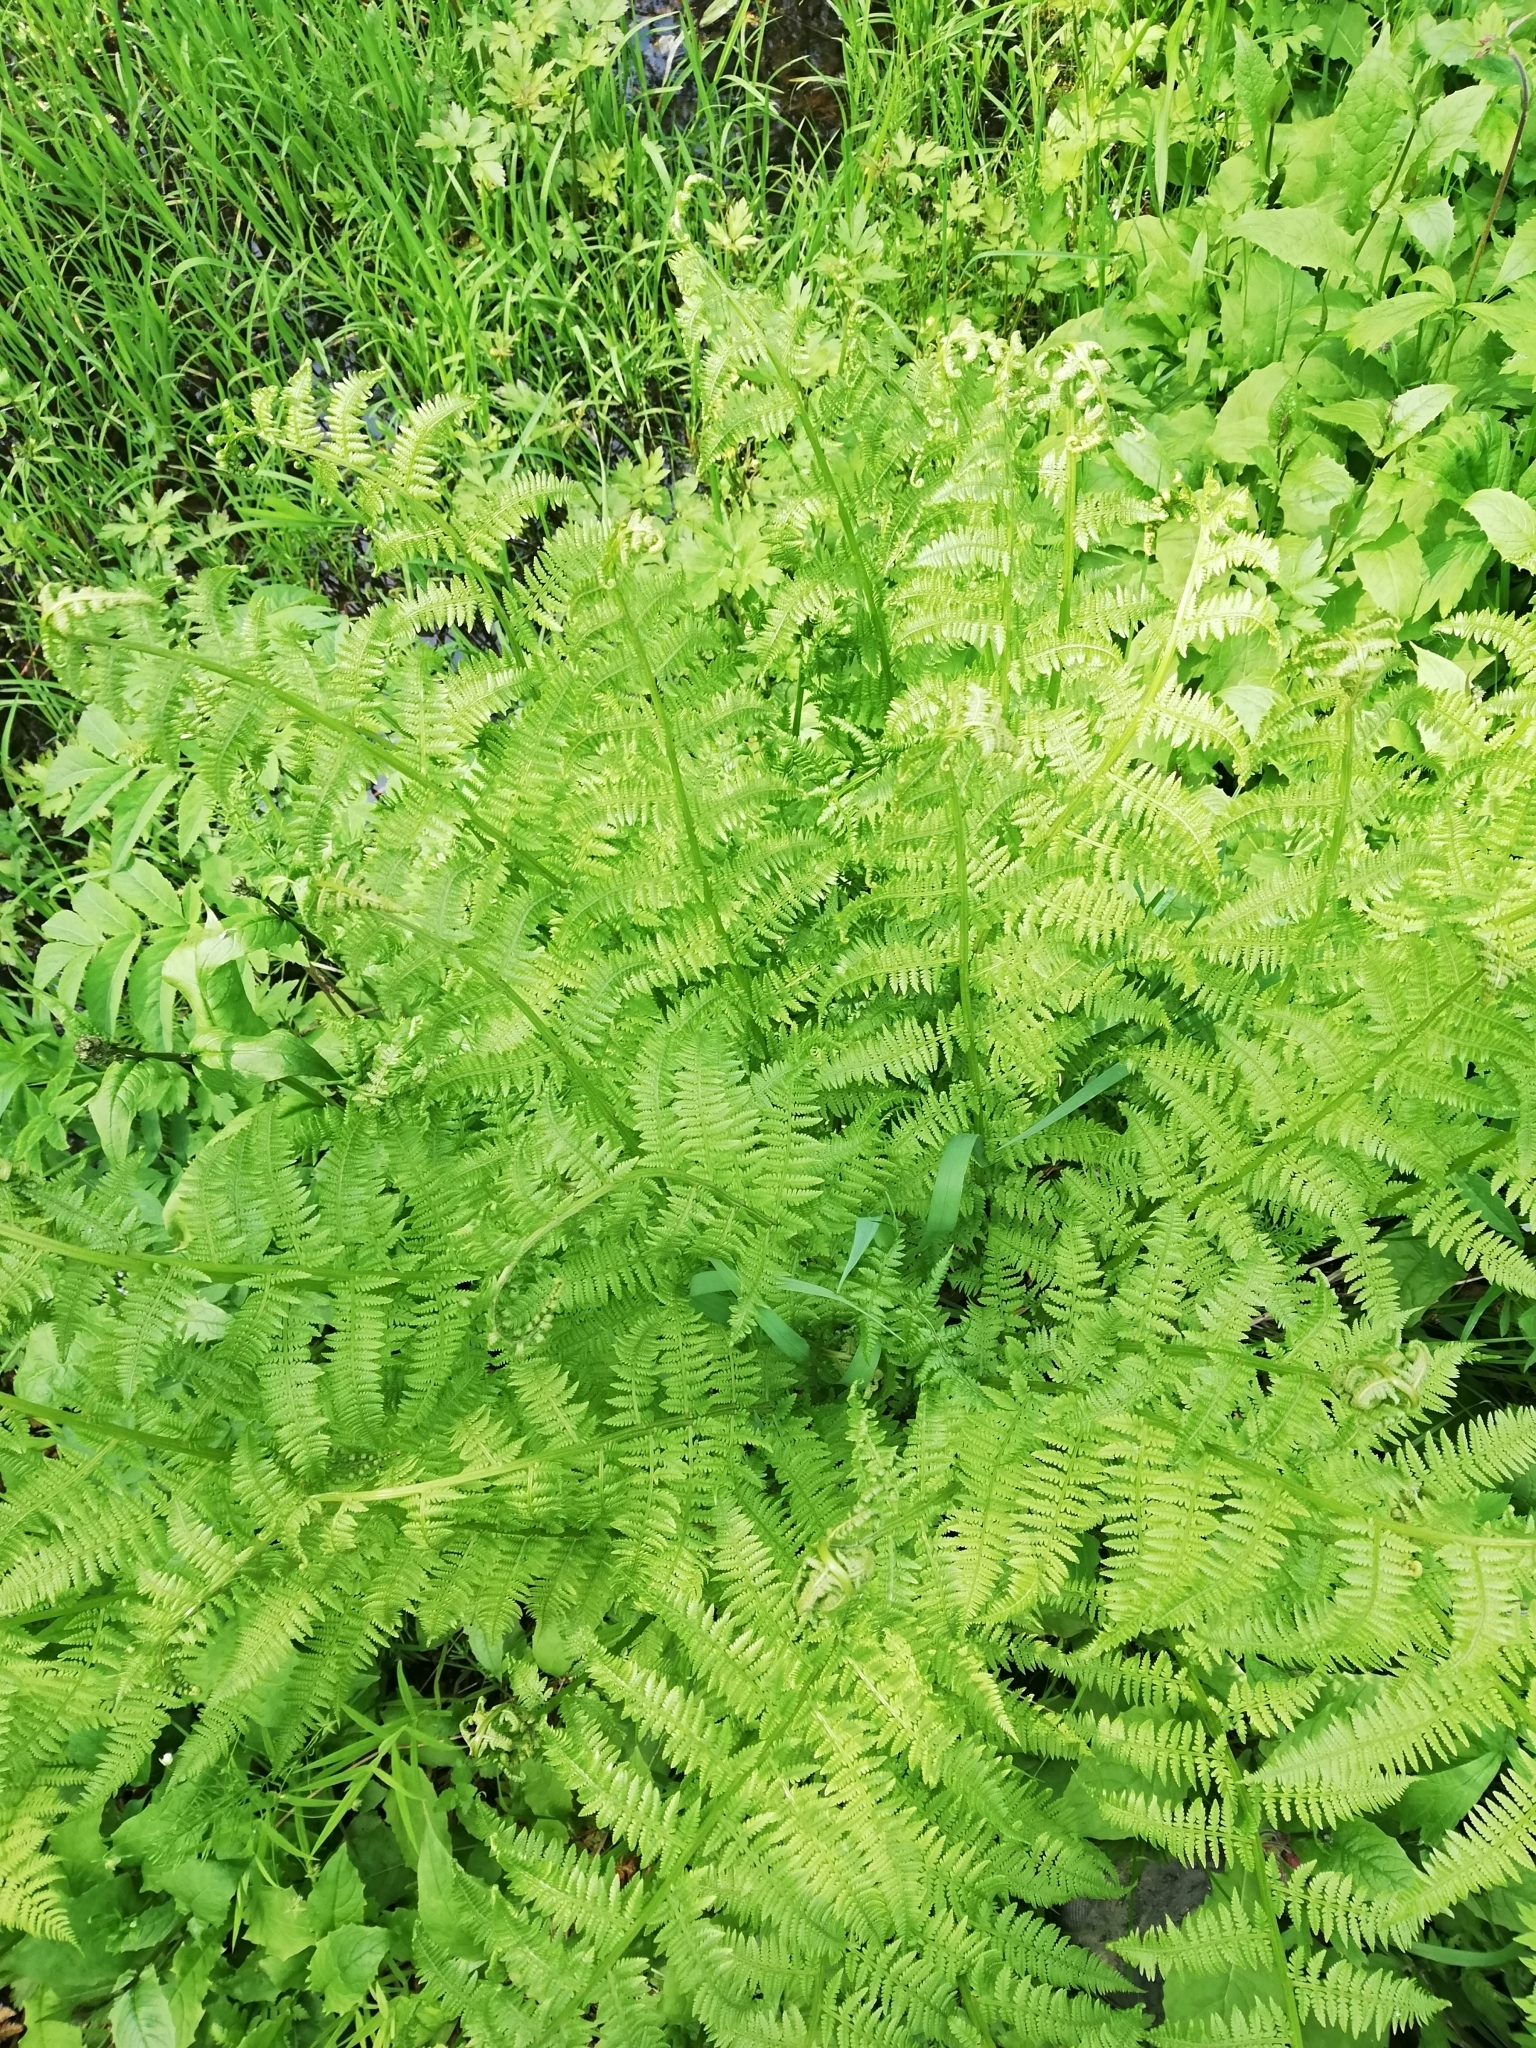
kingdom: Plantae
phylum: Tracheophyta
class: Polypodiopsida
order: Polypodiales
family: Athyriaceae
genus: Athyrium
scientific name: Athyrium filix-femina
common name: Lady fern
